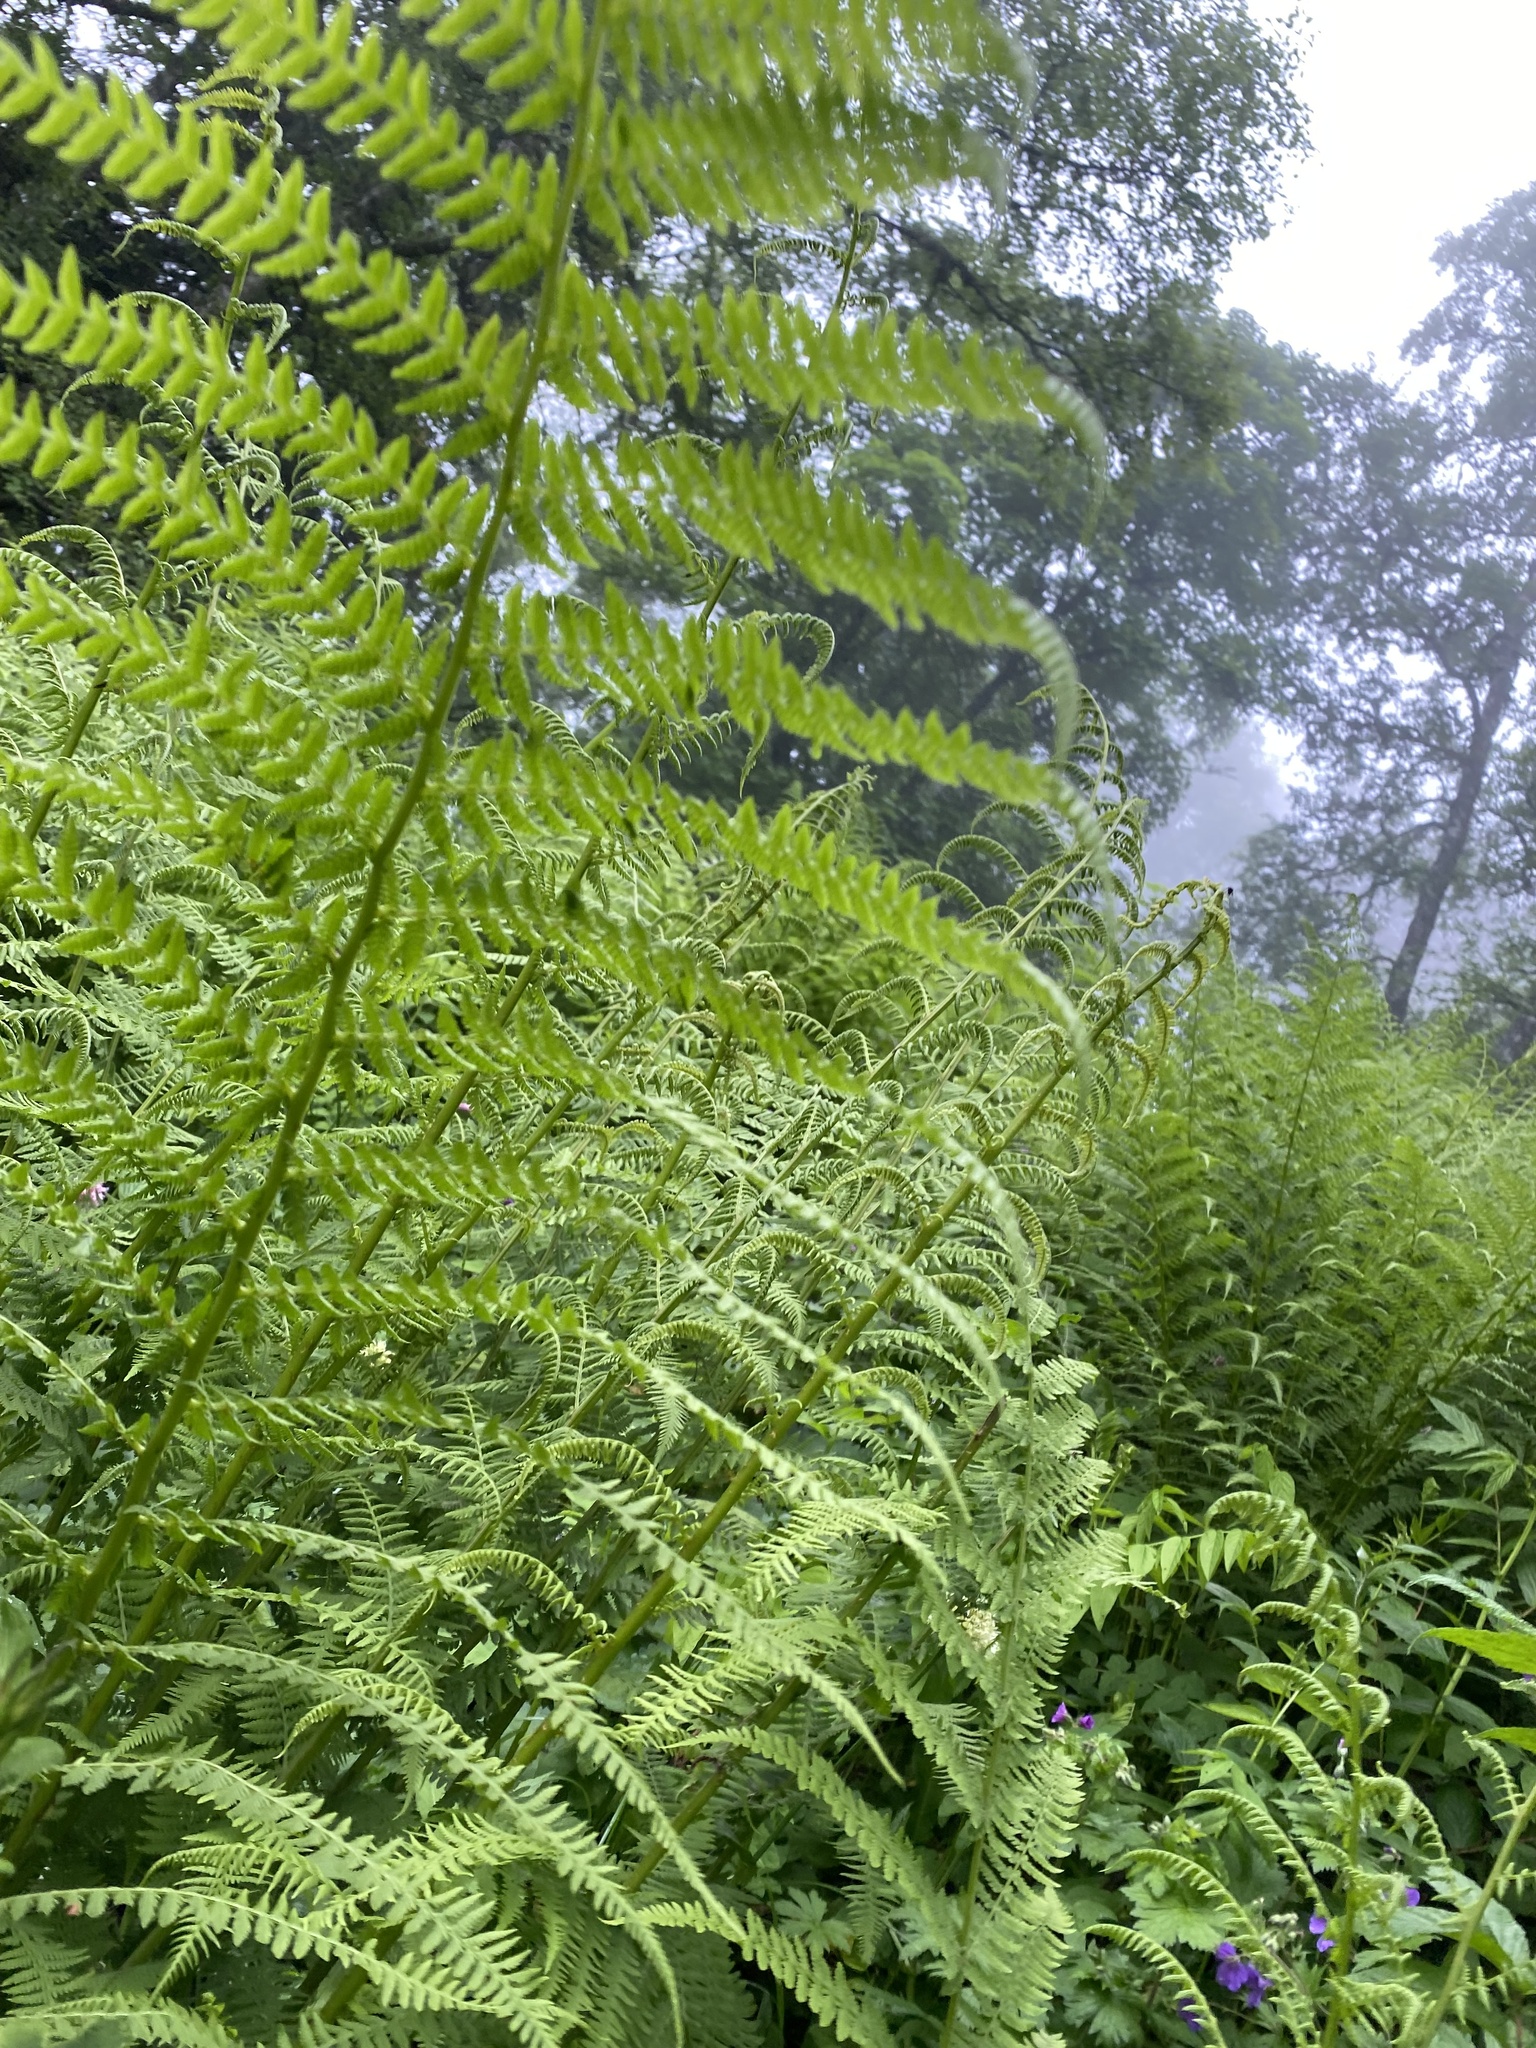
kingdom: Plantae
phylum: Tracheophyta
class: Polypodiopsida
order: Polypodiales
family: Athyriaceae
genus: Athyrium
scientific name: Athyrium filix-femina
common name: Lady fern
